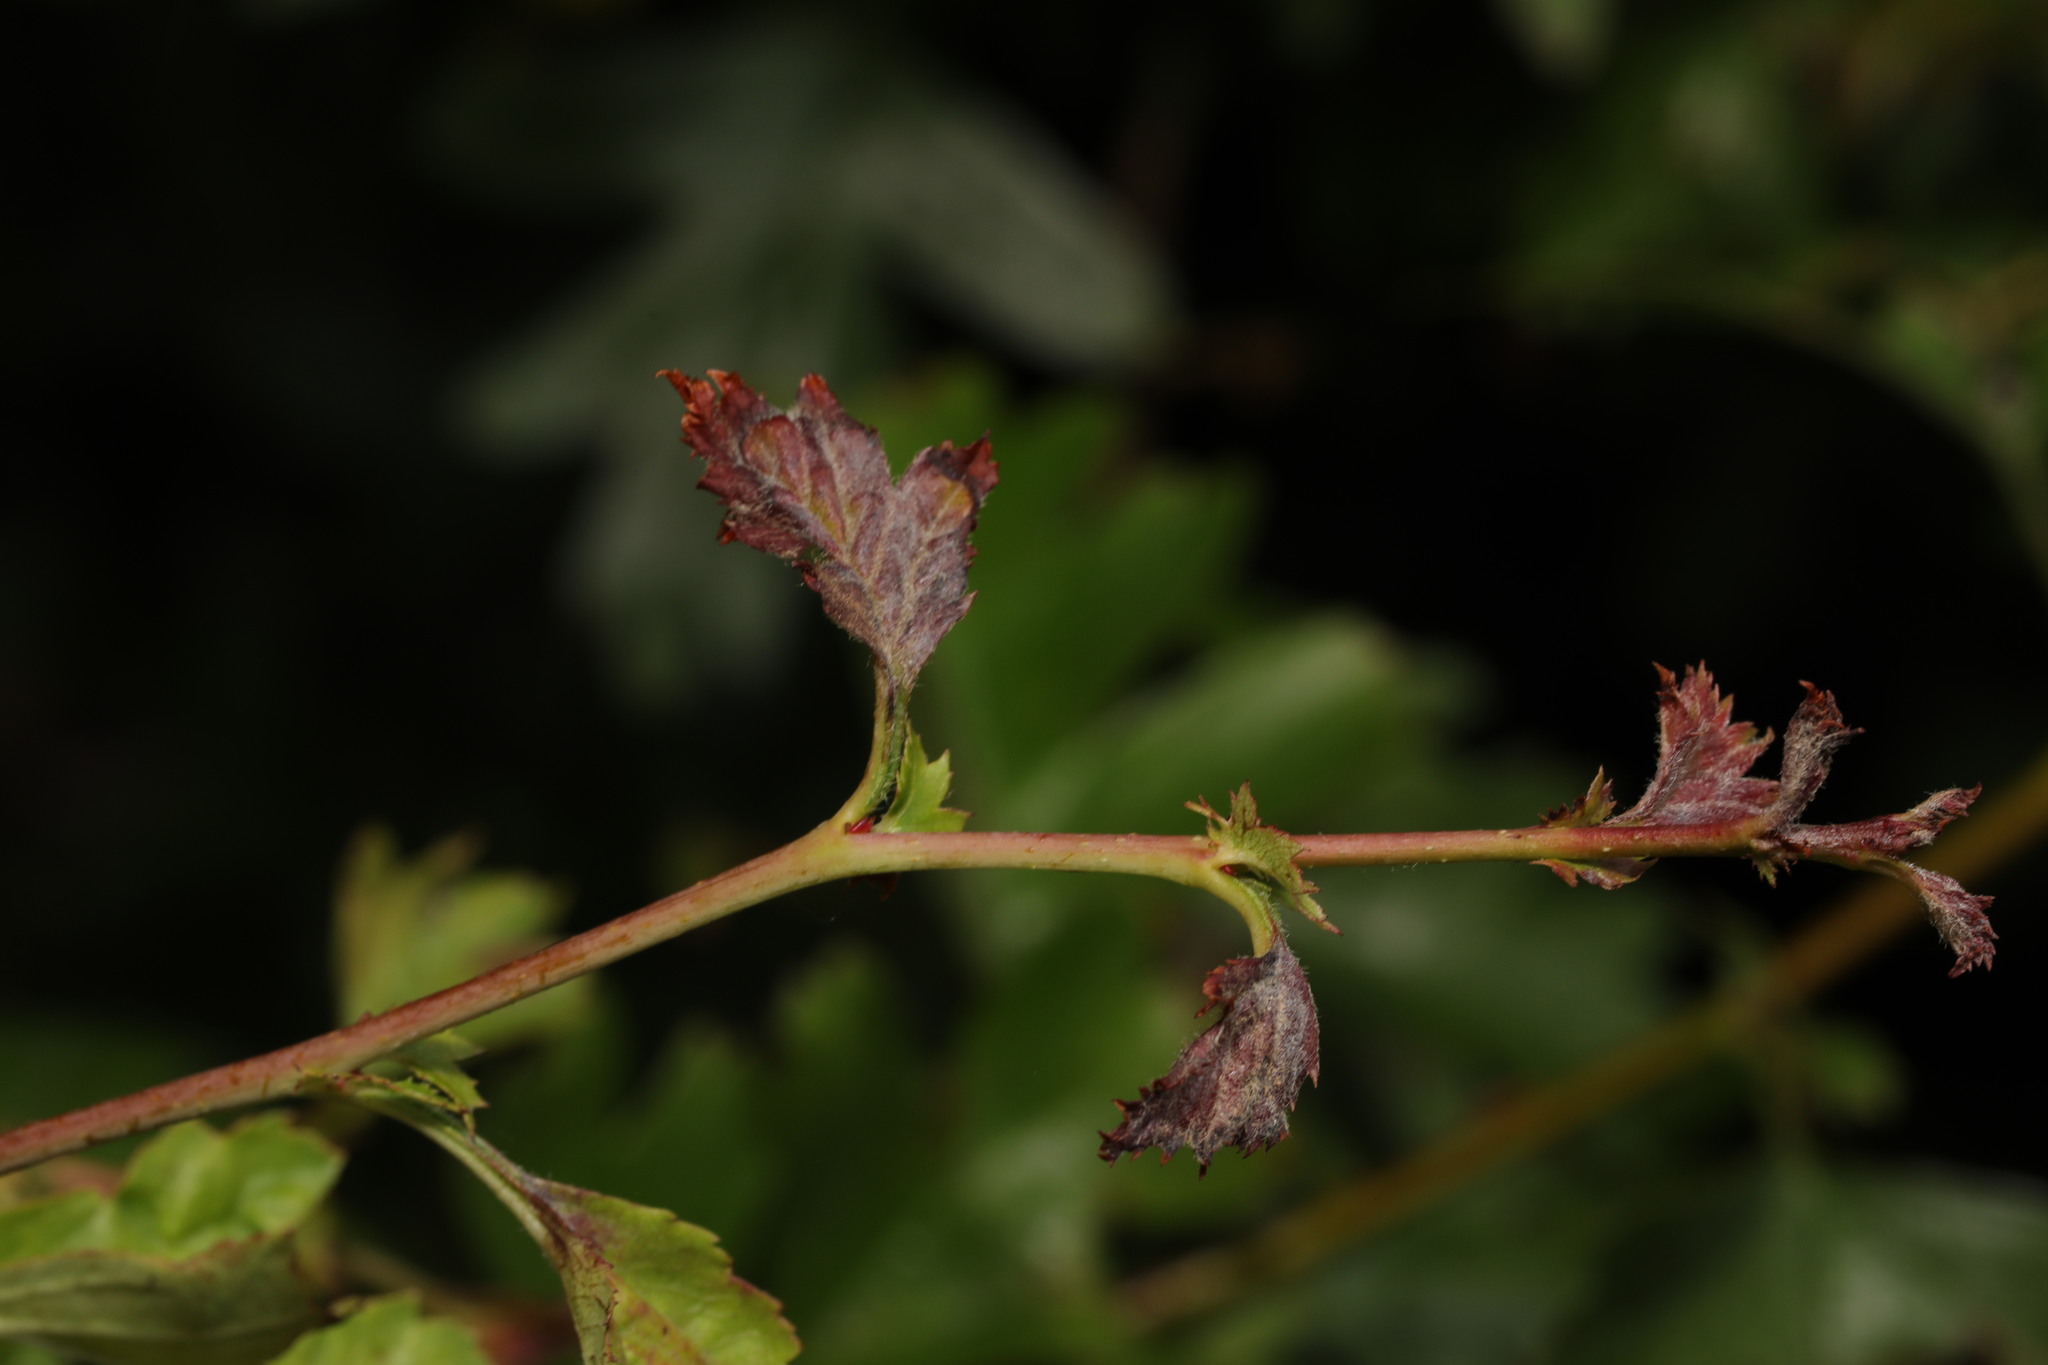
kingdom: Fungi
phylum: Ascomycota
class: Leotiomycetes
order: Helotiales
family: Erysiphaceae
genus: Podosphaera
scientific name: Podosphaera clandestina
